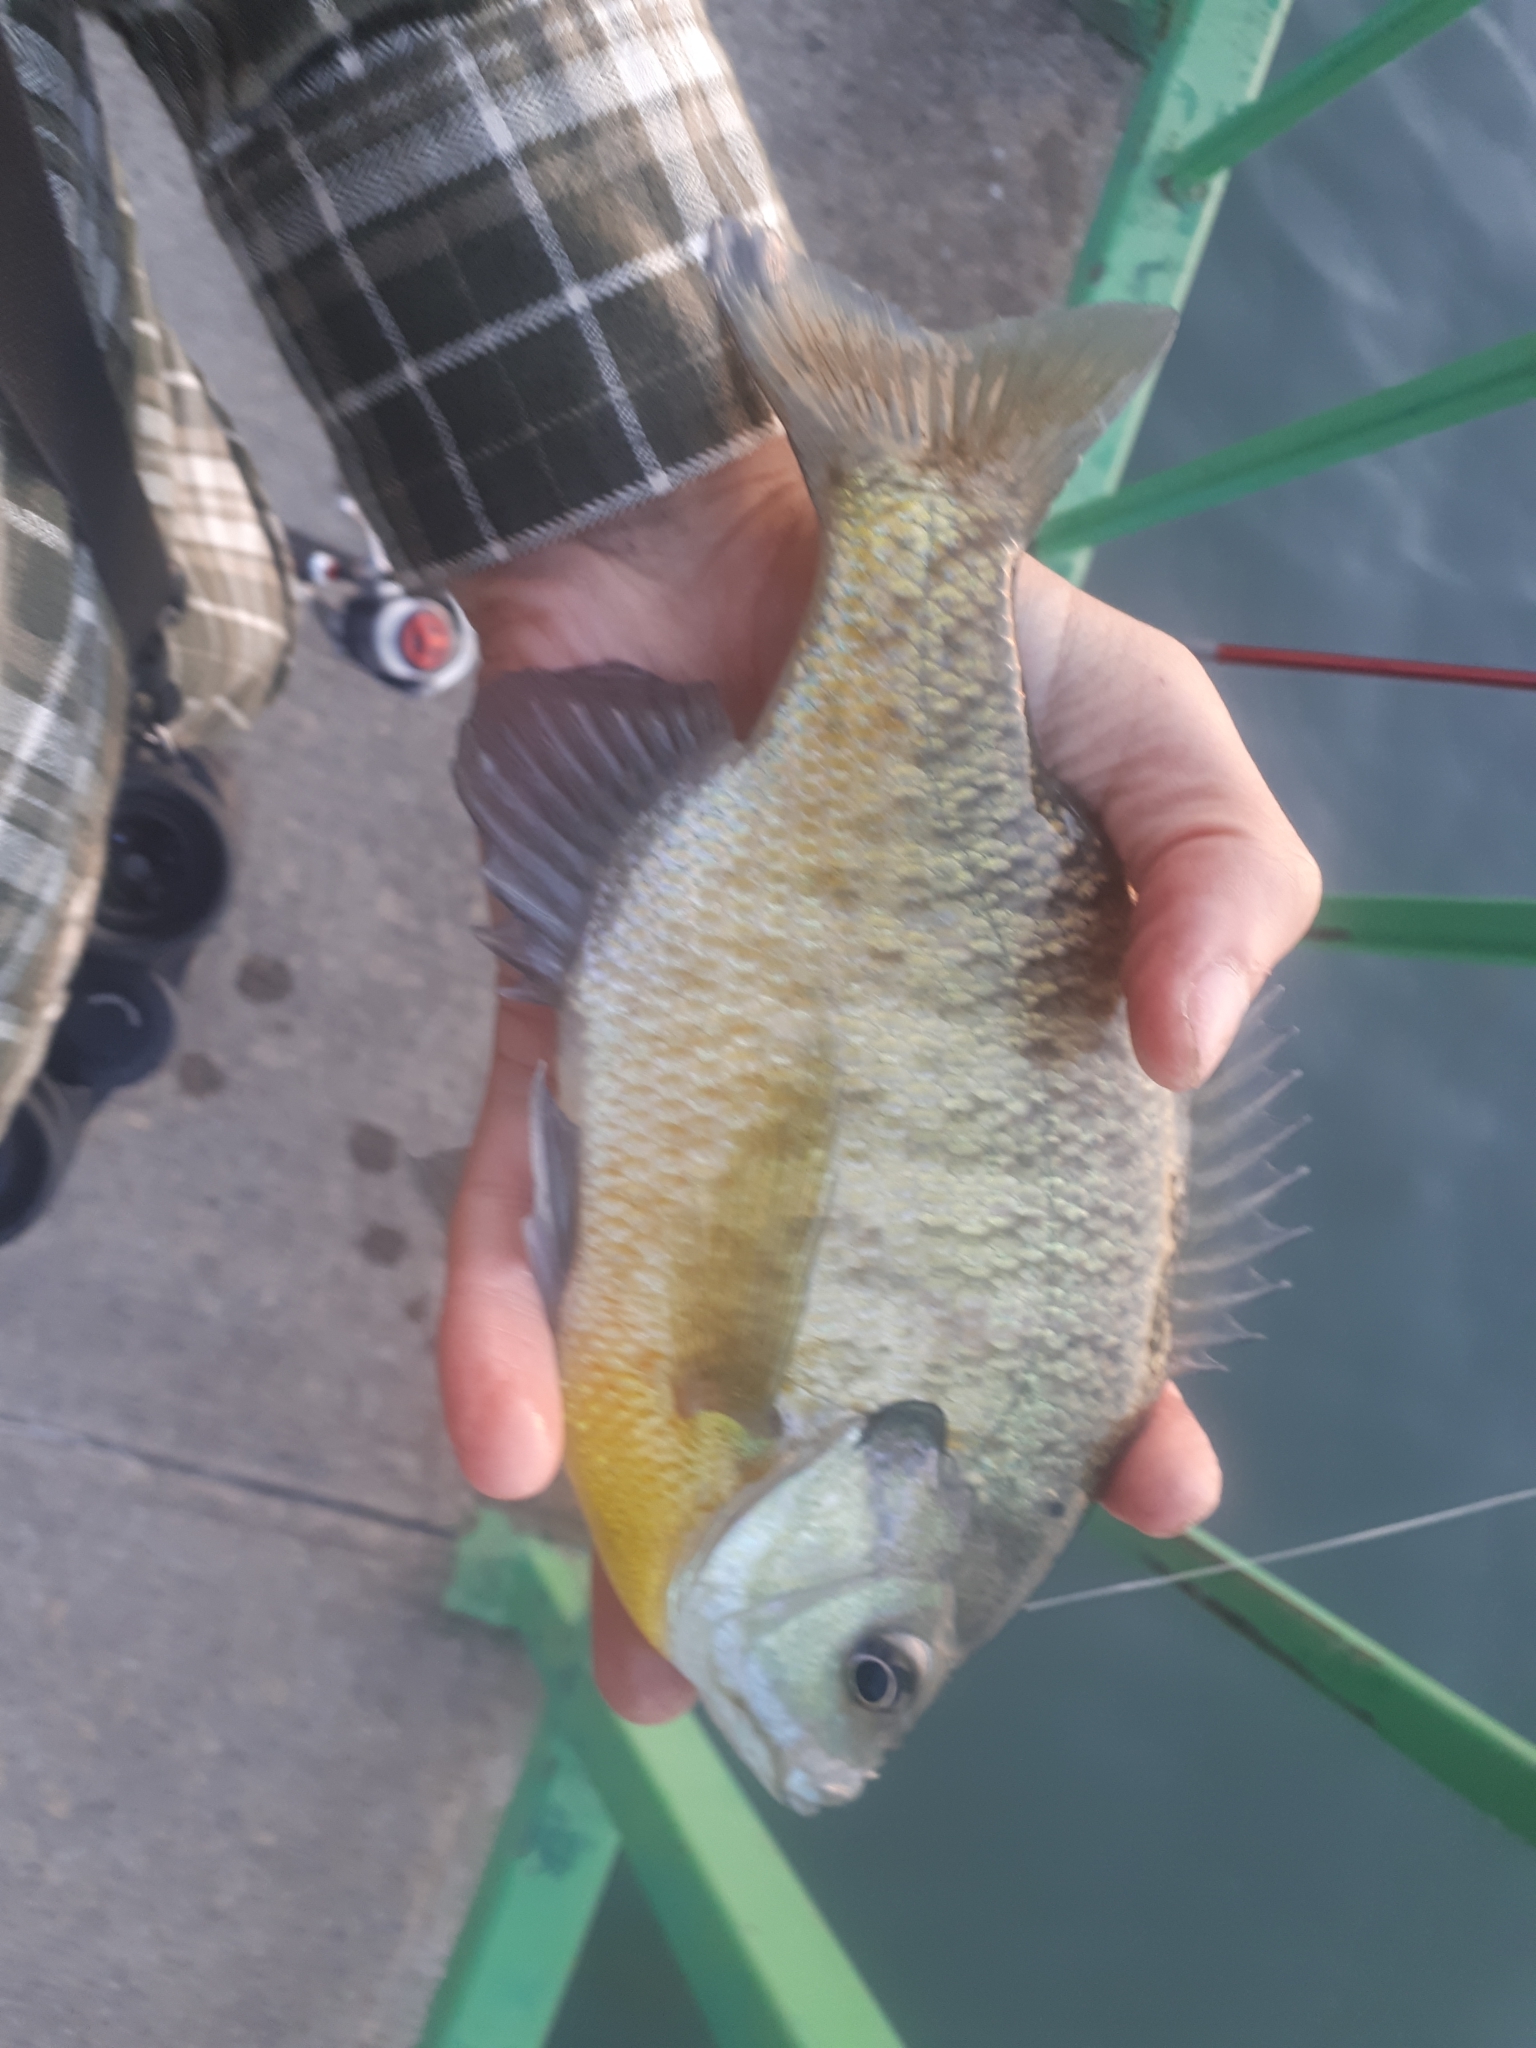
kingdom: Animalia
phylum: Chordata
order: Perciformes
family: Centrarchidae
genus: Lepomis
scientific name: Lepomis macrochirus
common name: Bluegill
